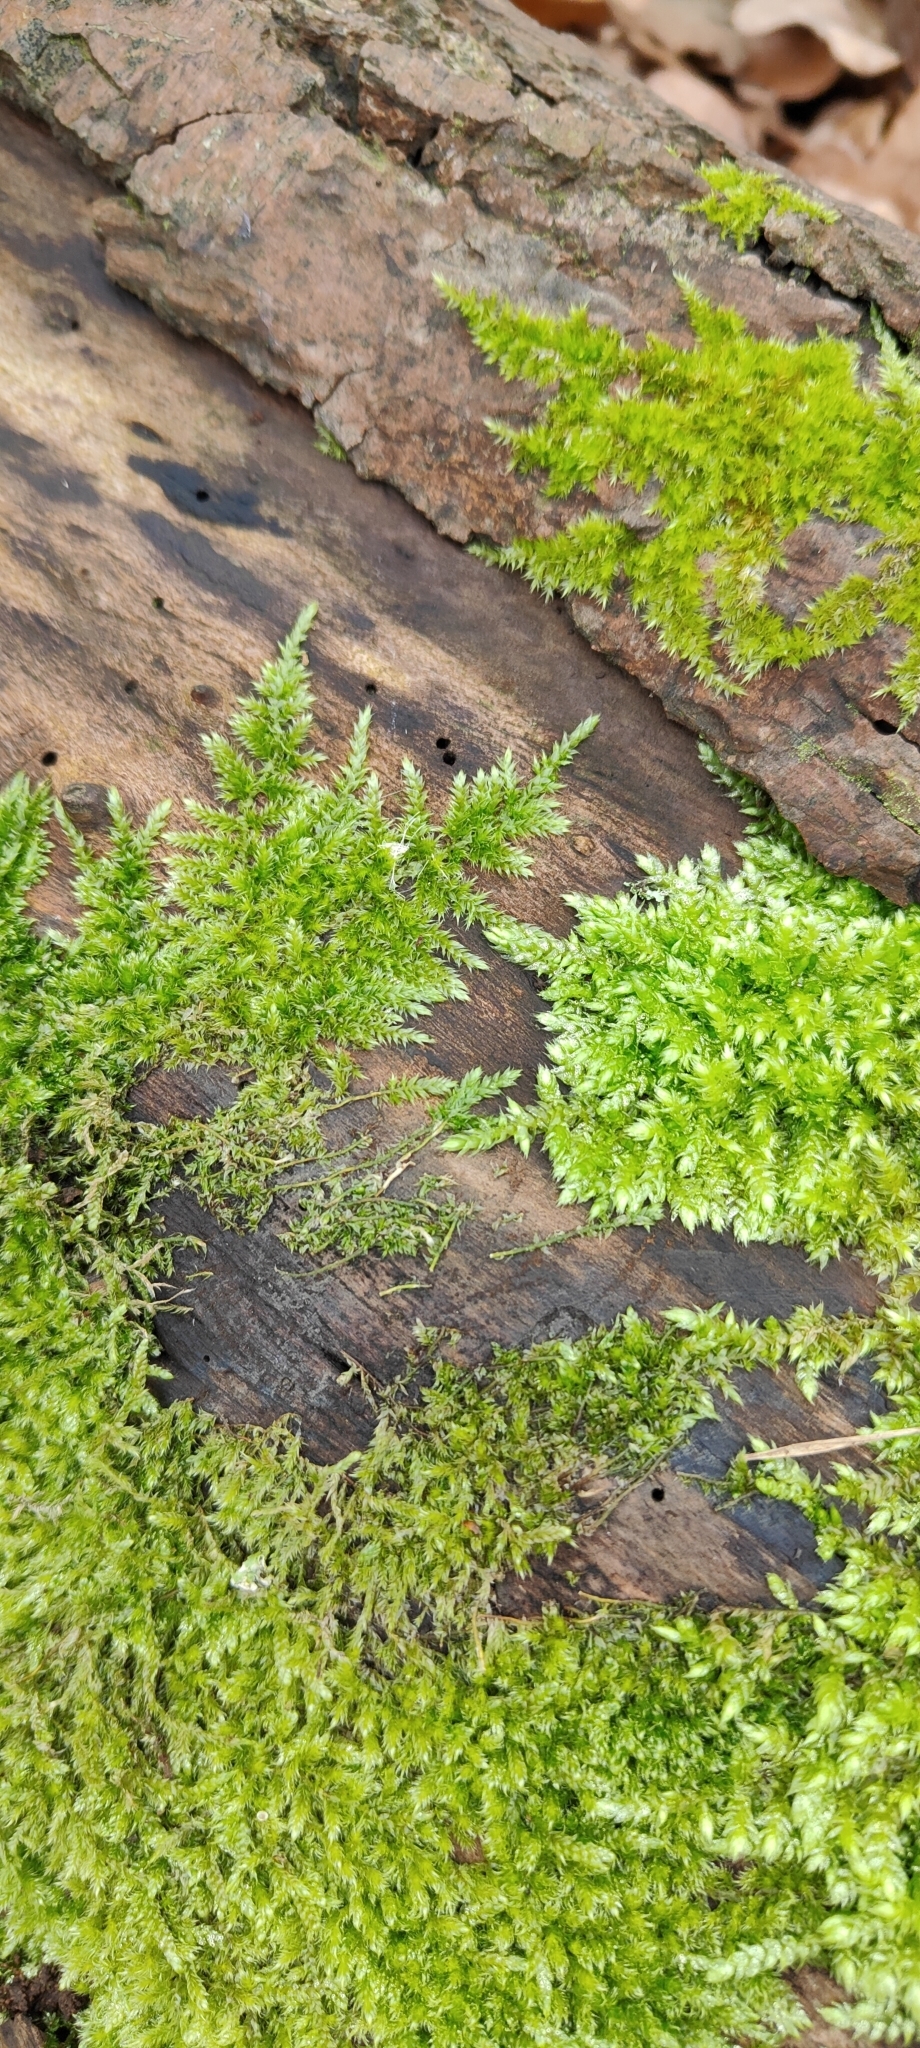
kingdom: Plantae
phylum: Bryophyta
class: Bryopsida
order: Hypnales
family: Brachytheciaceae
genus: Rhynchostegium
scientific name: Rhynchostegium confertum
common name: Clustered feather-moss
